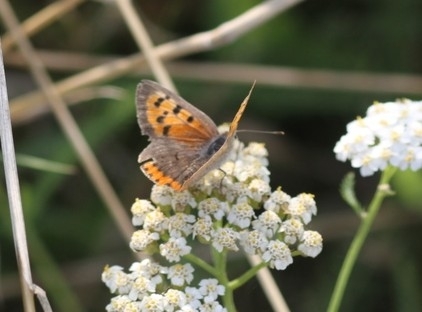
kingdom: Animalia
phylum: Arthropoda
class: Insecta
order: Lepidoptera
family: Lycaenidae
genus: Lycaena
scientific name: Lycaena phlaeas
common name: Small copper
